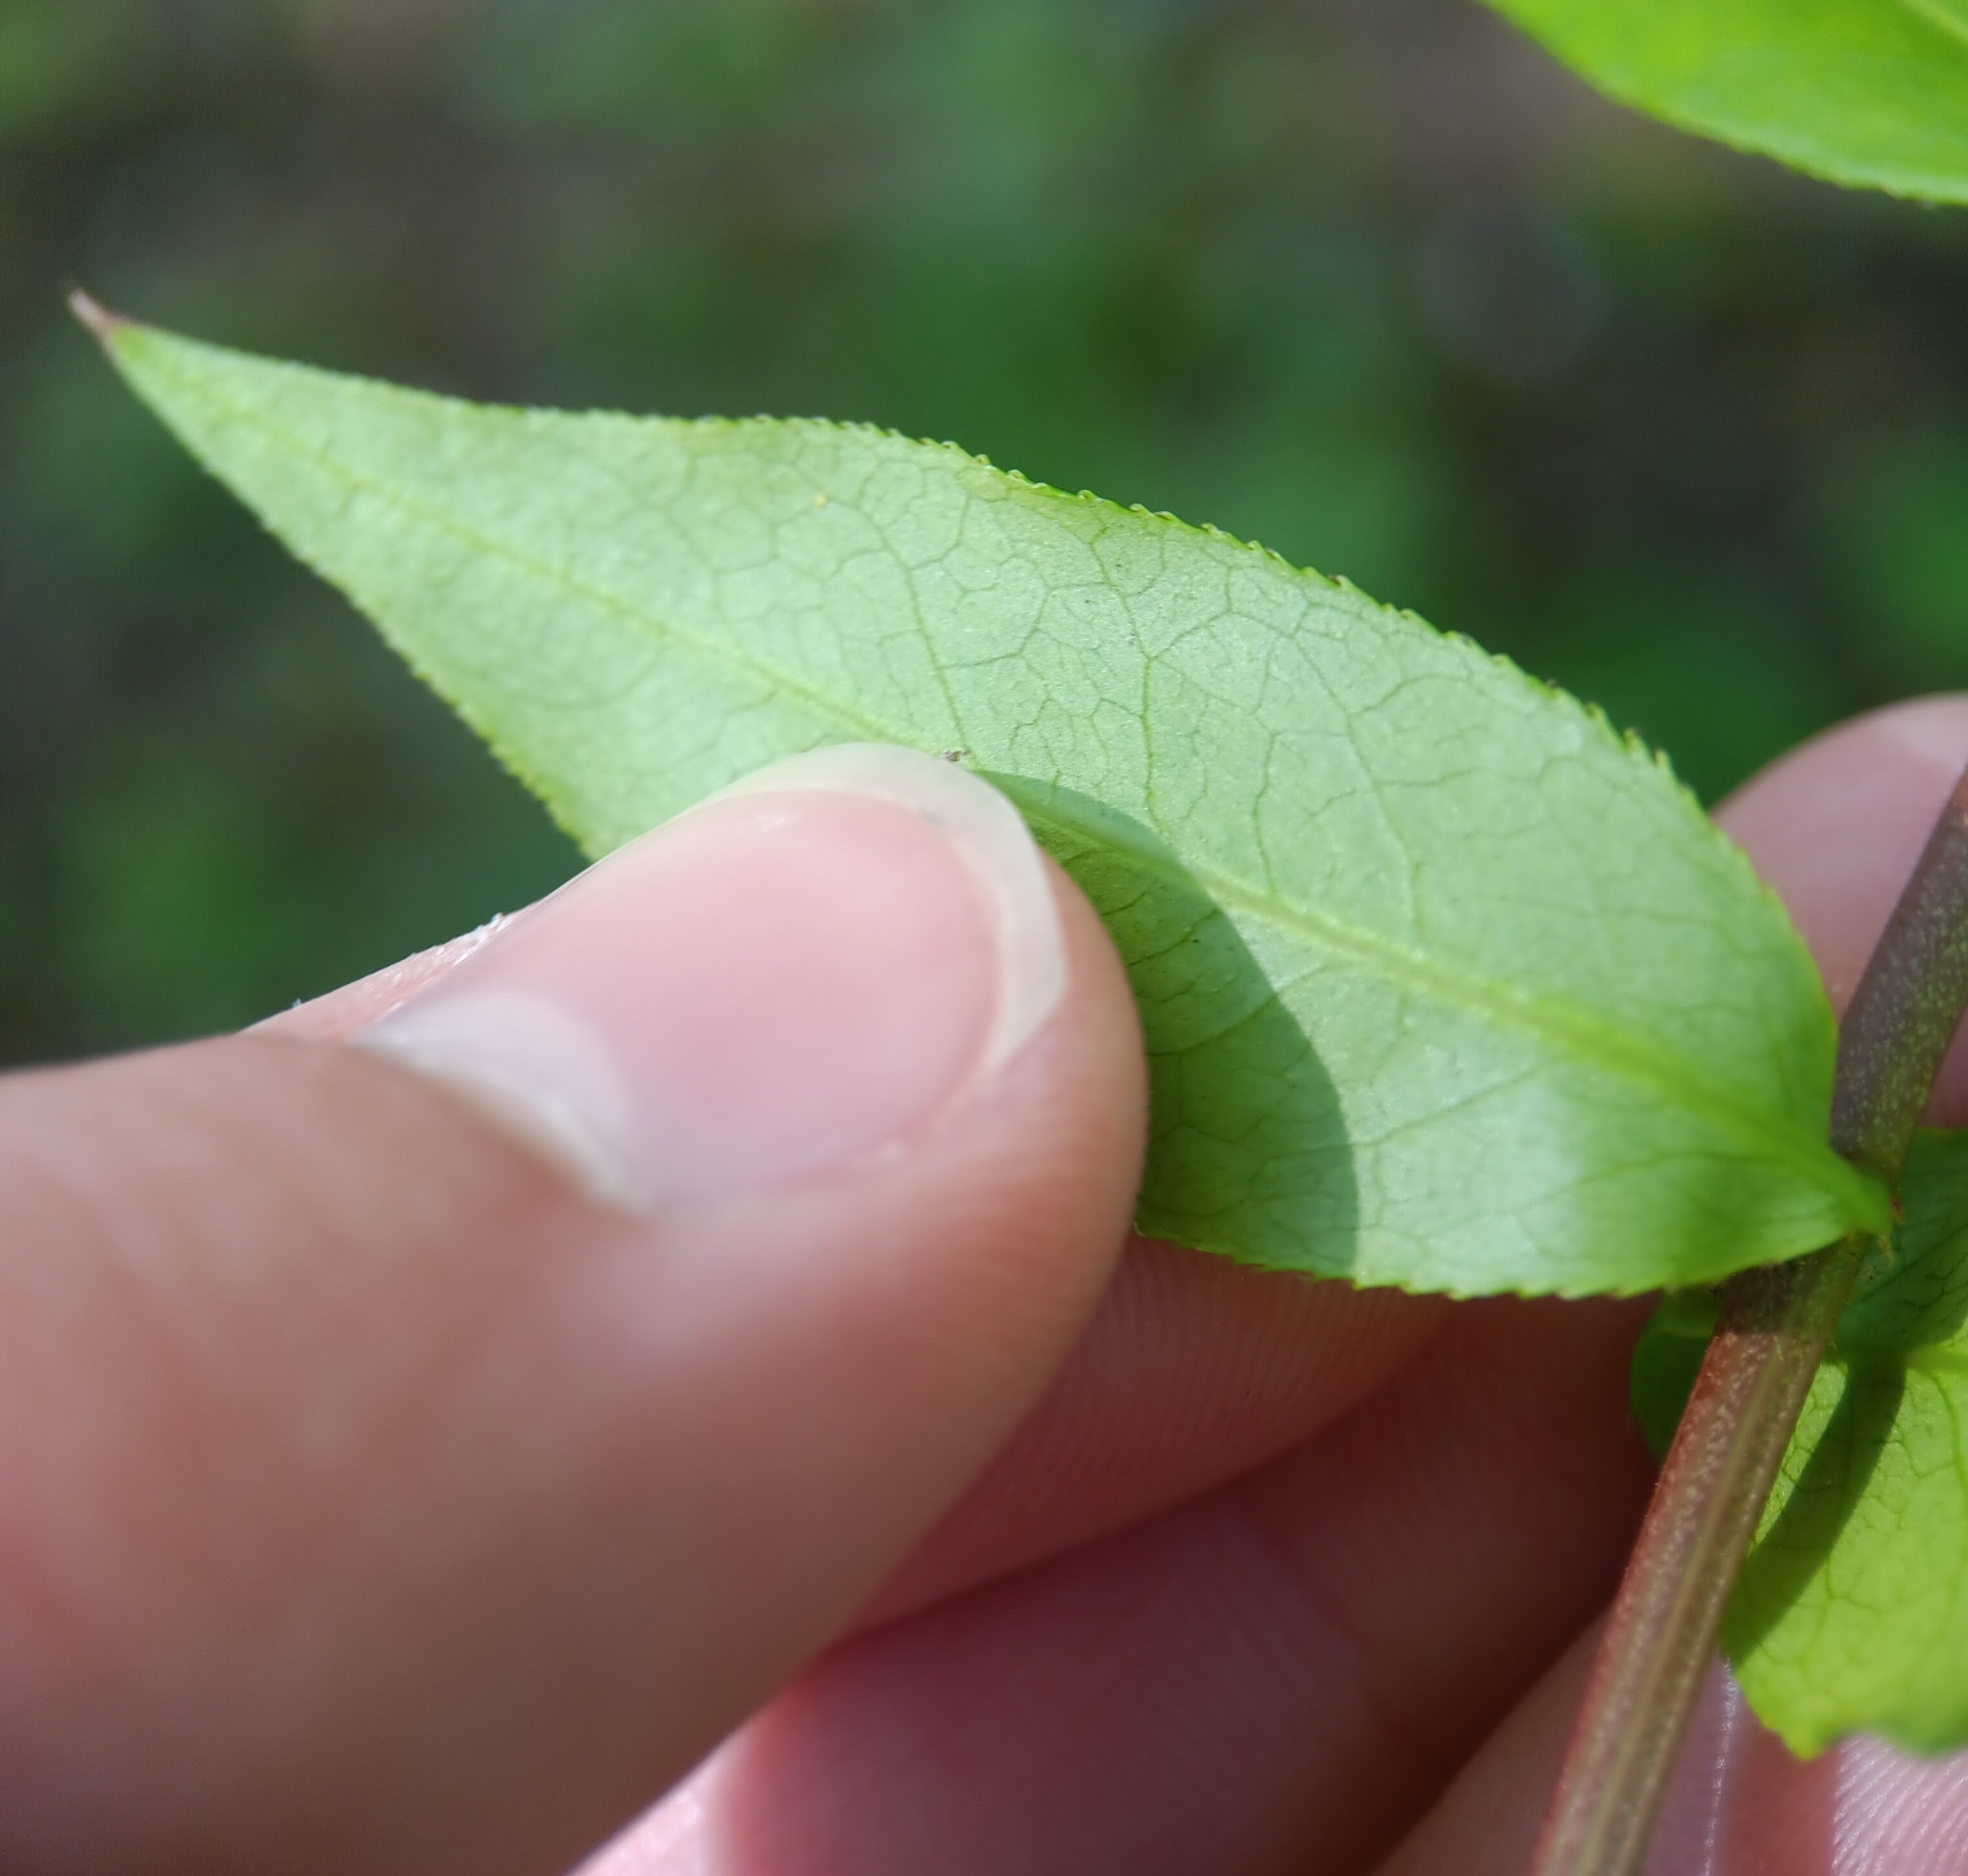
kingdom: Plantae
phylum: Tracheophyta
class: Magnoliopsida
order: Celastrales
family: Celastraceae
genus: Euonymus
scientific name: Euonymus alatus
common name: Winged euonymus
